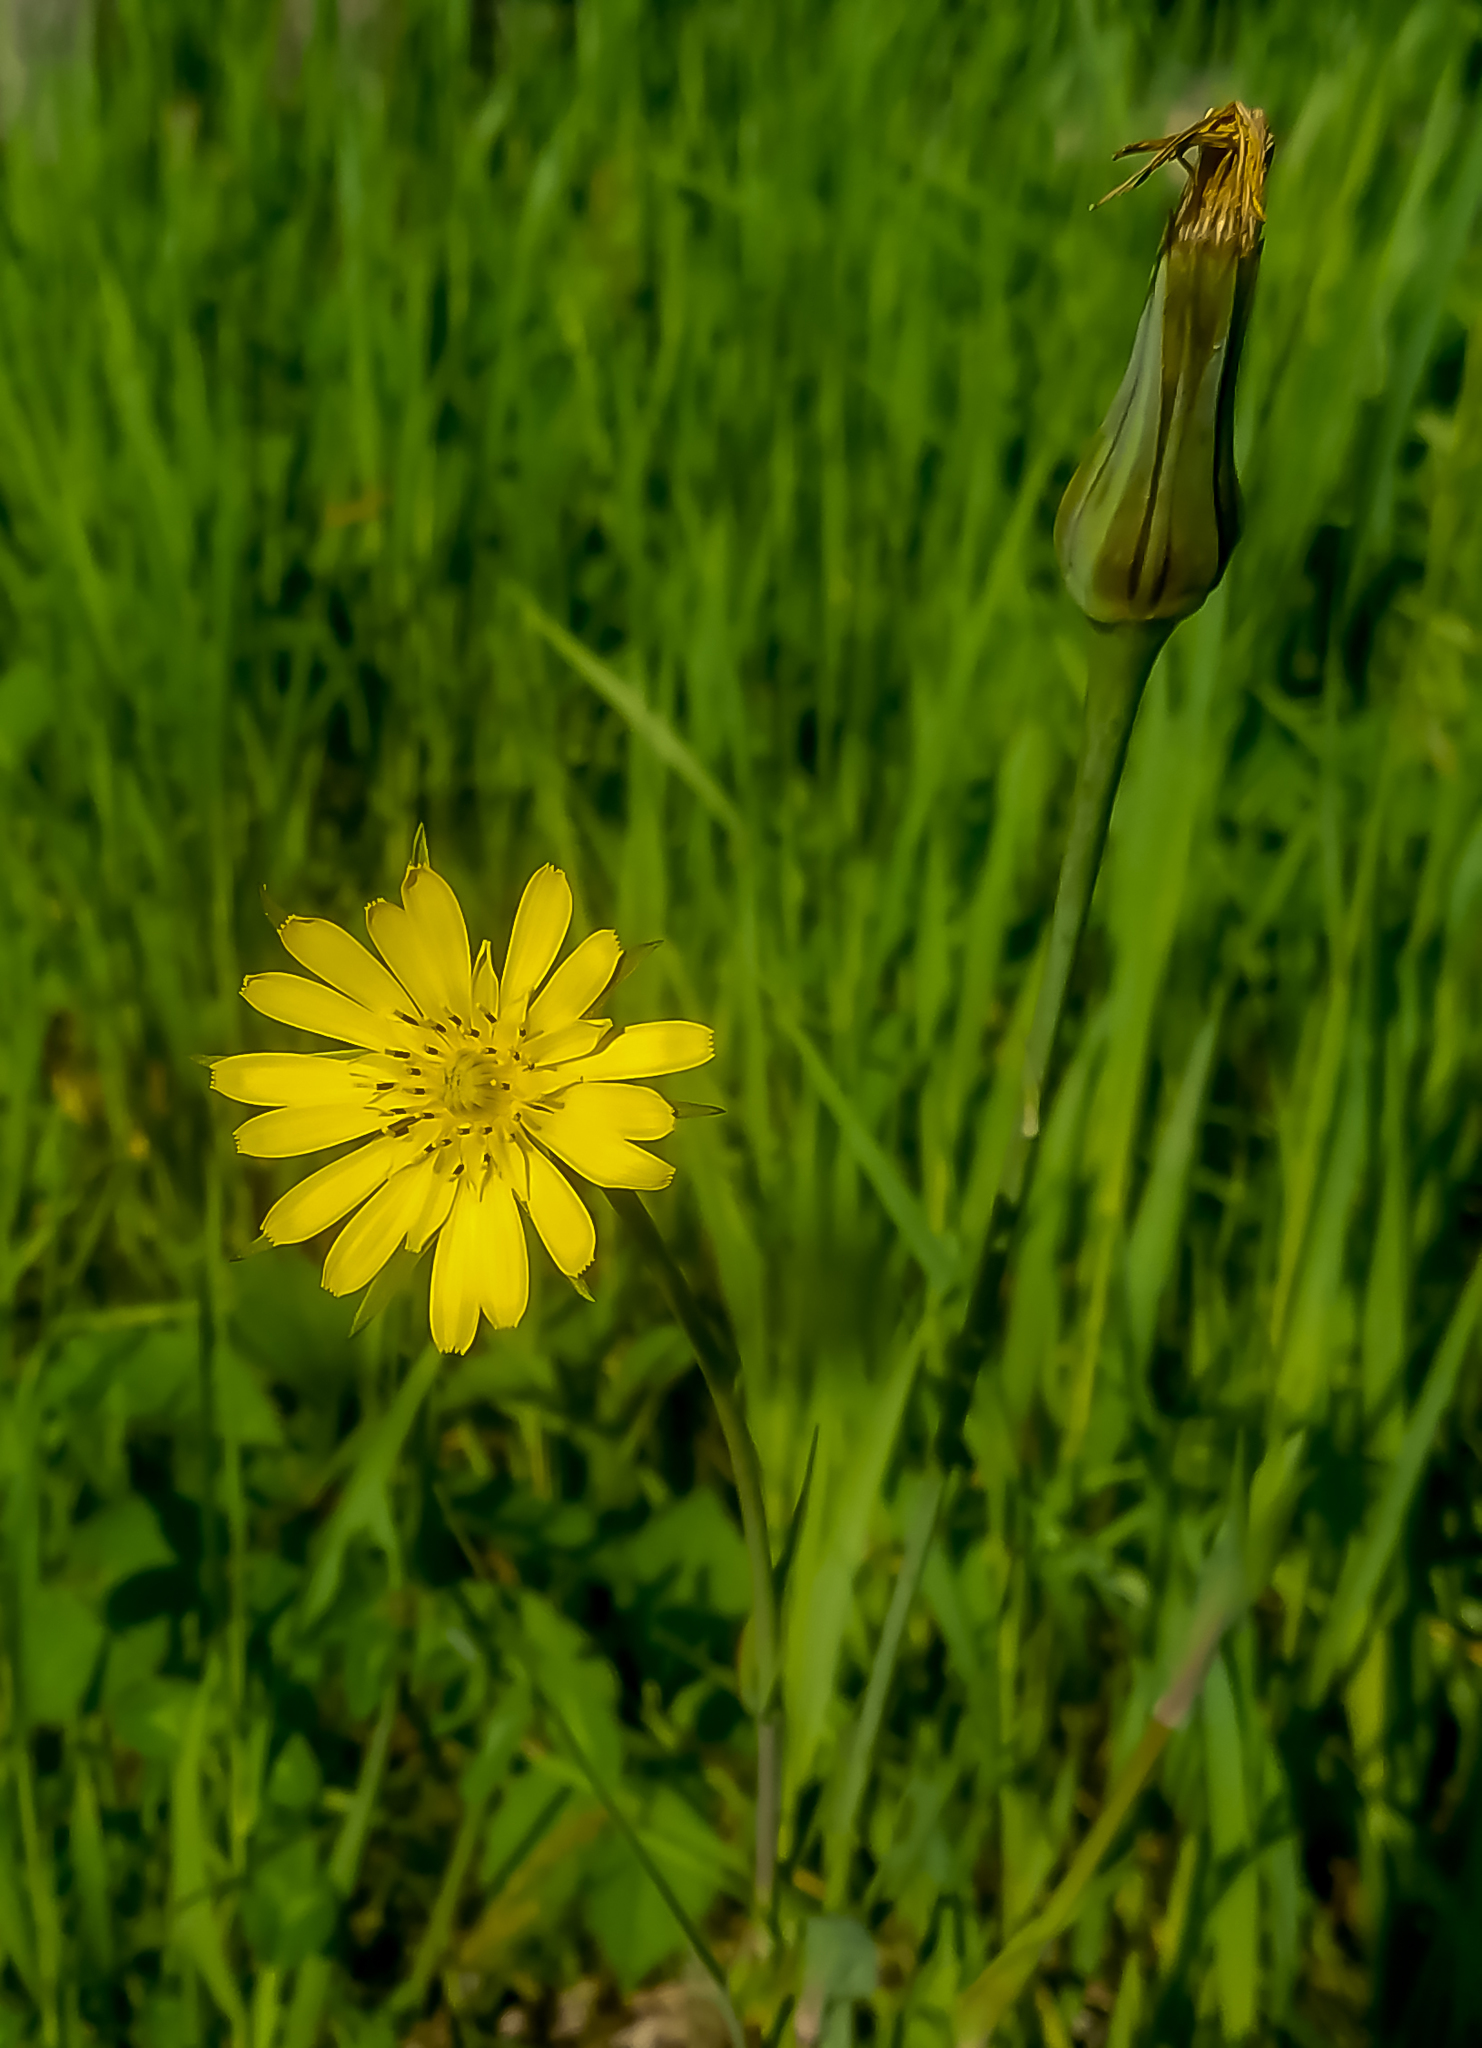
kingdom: Plantae
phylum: Tracheophyta
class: Magnoliopsida
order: Asterales
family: Asteraceae
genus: Tragopogon
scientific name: Tragopogon dubius
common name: Yellow salsify
